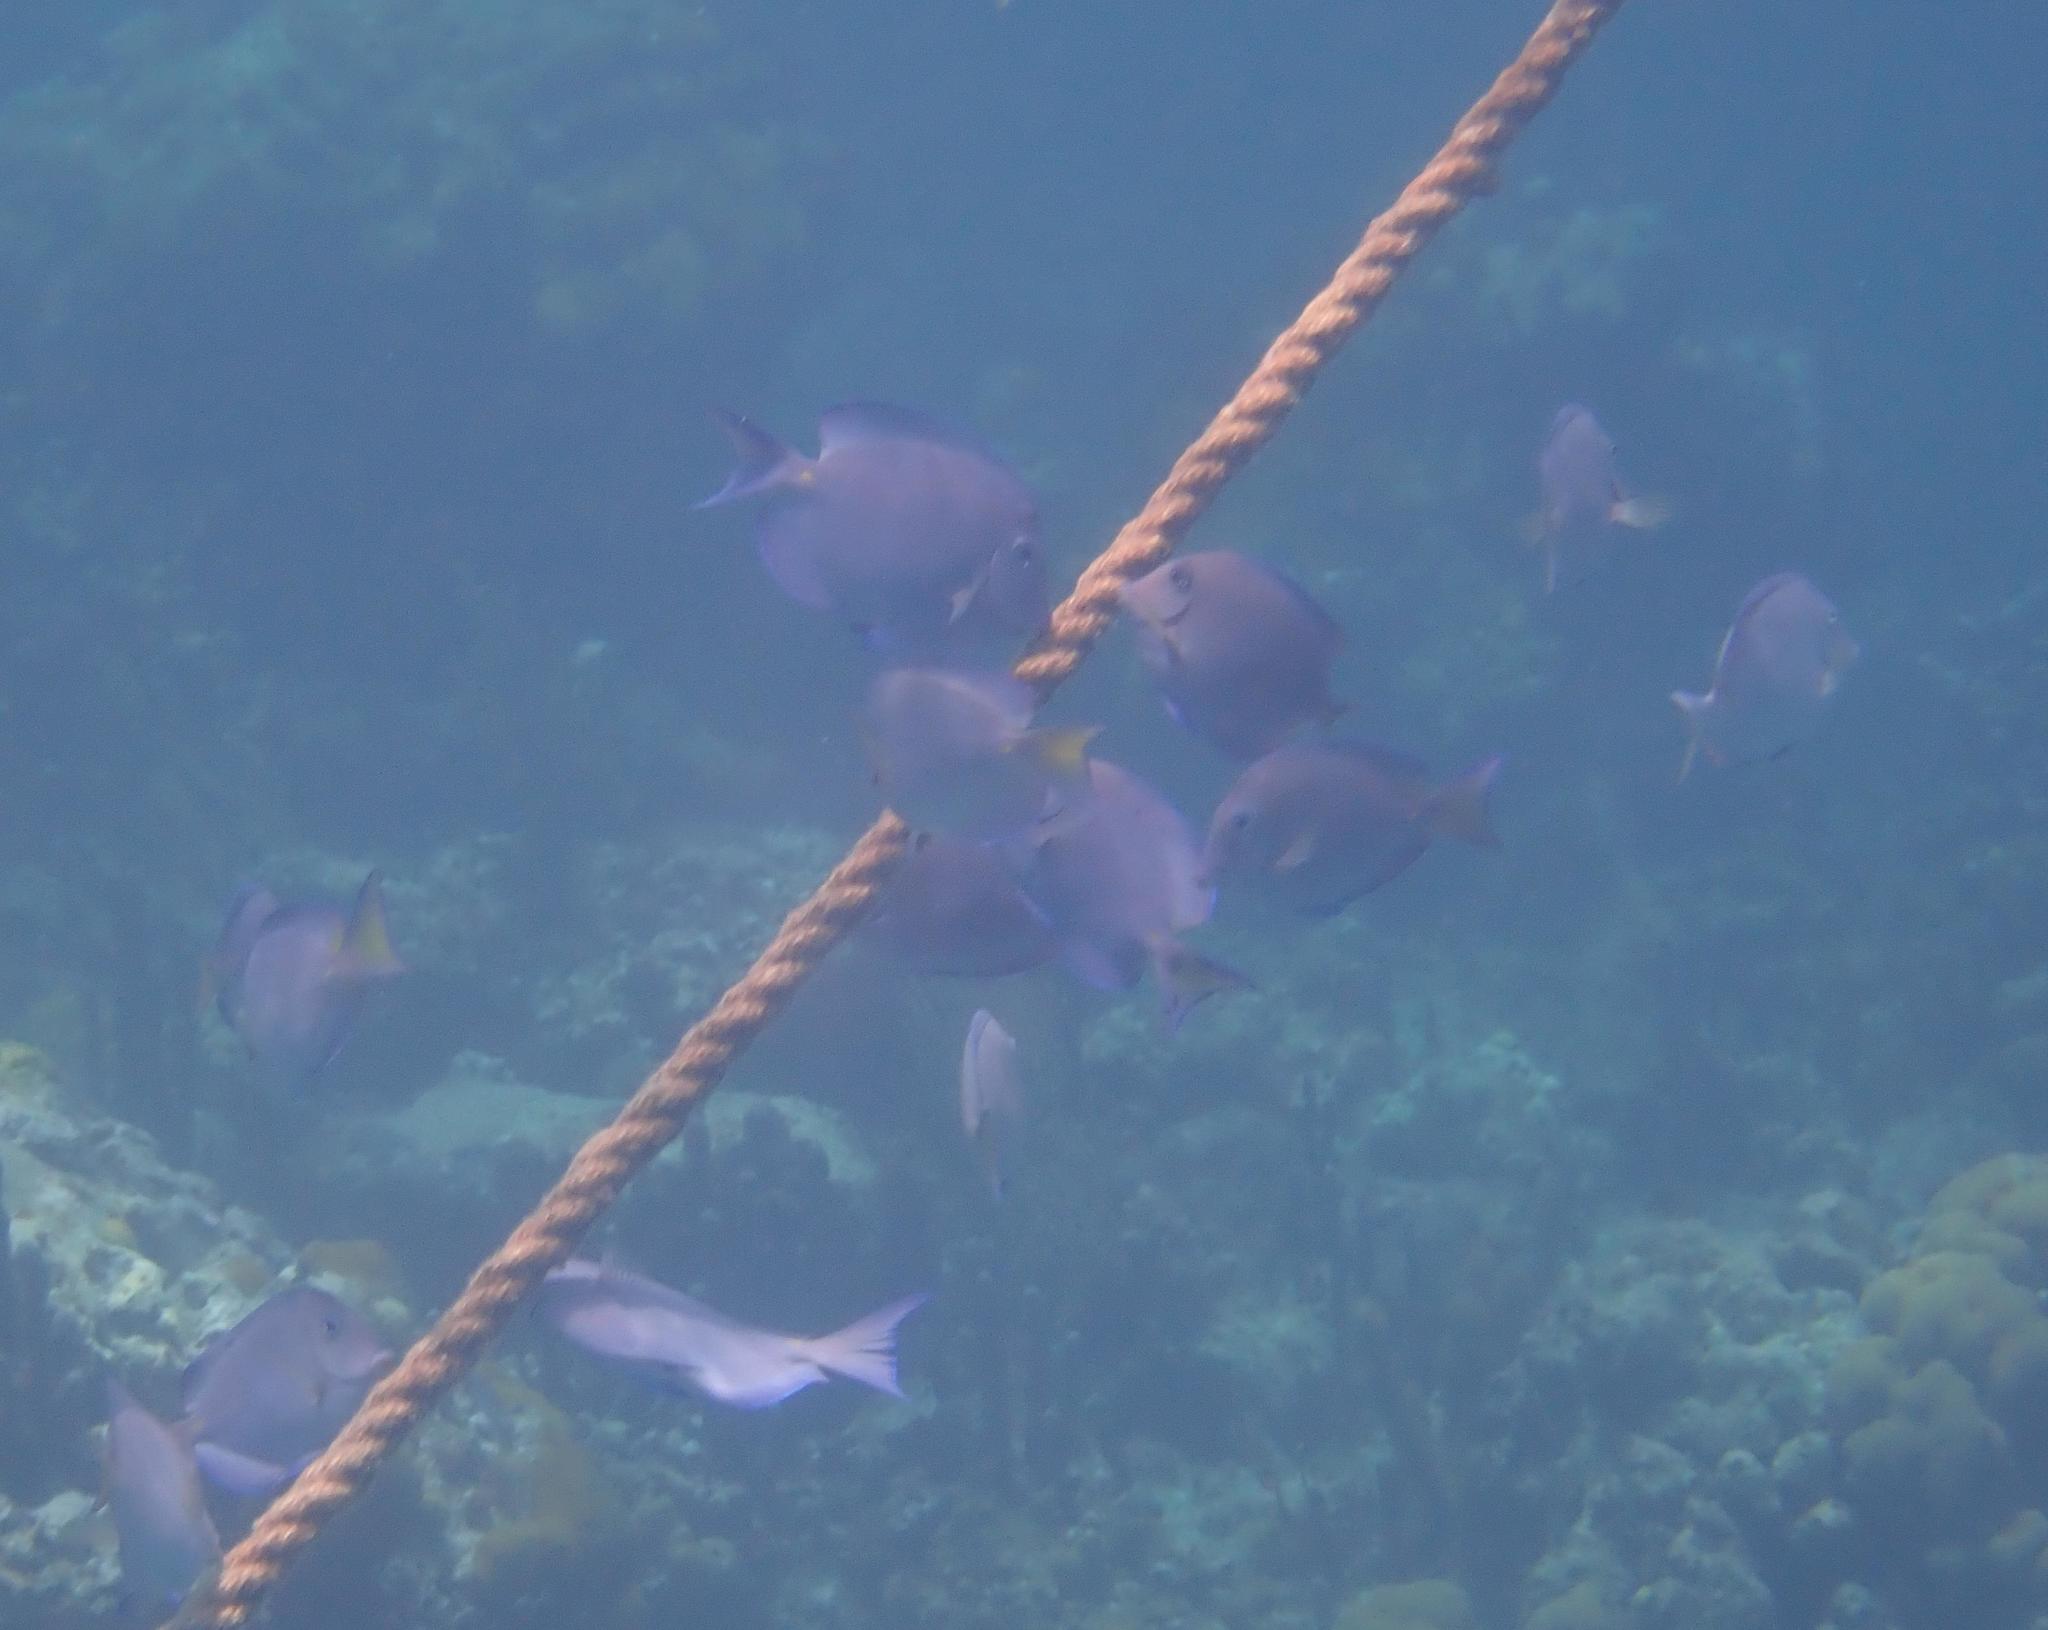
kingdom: Animalia
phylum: Chordata
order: Perciformes
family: Acanthuridae
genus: Acanthurus
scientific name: Acanthurus coeruleus
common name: Blue tang
